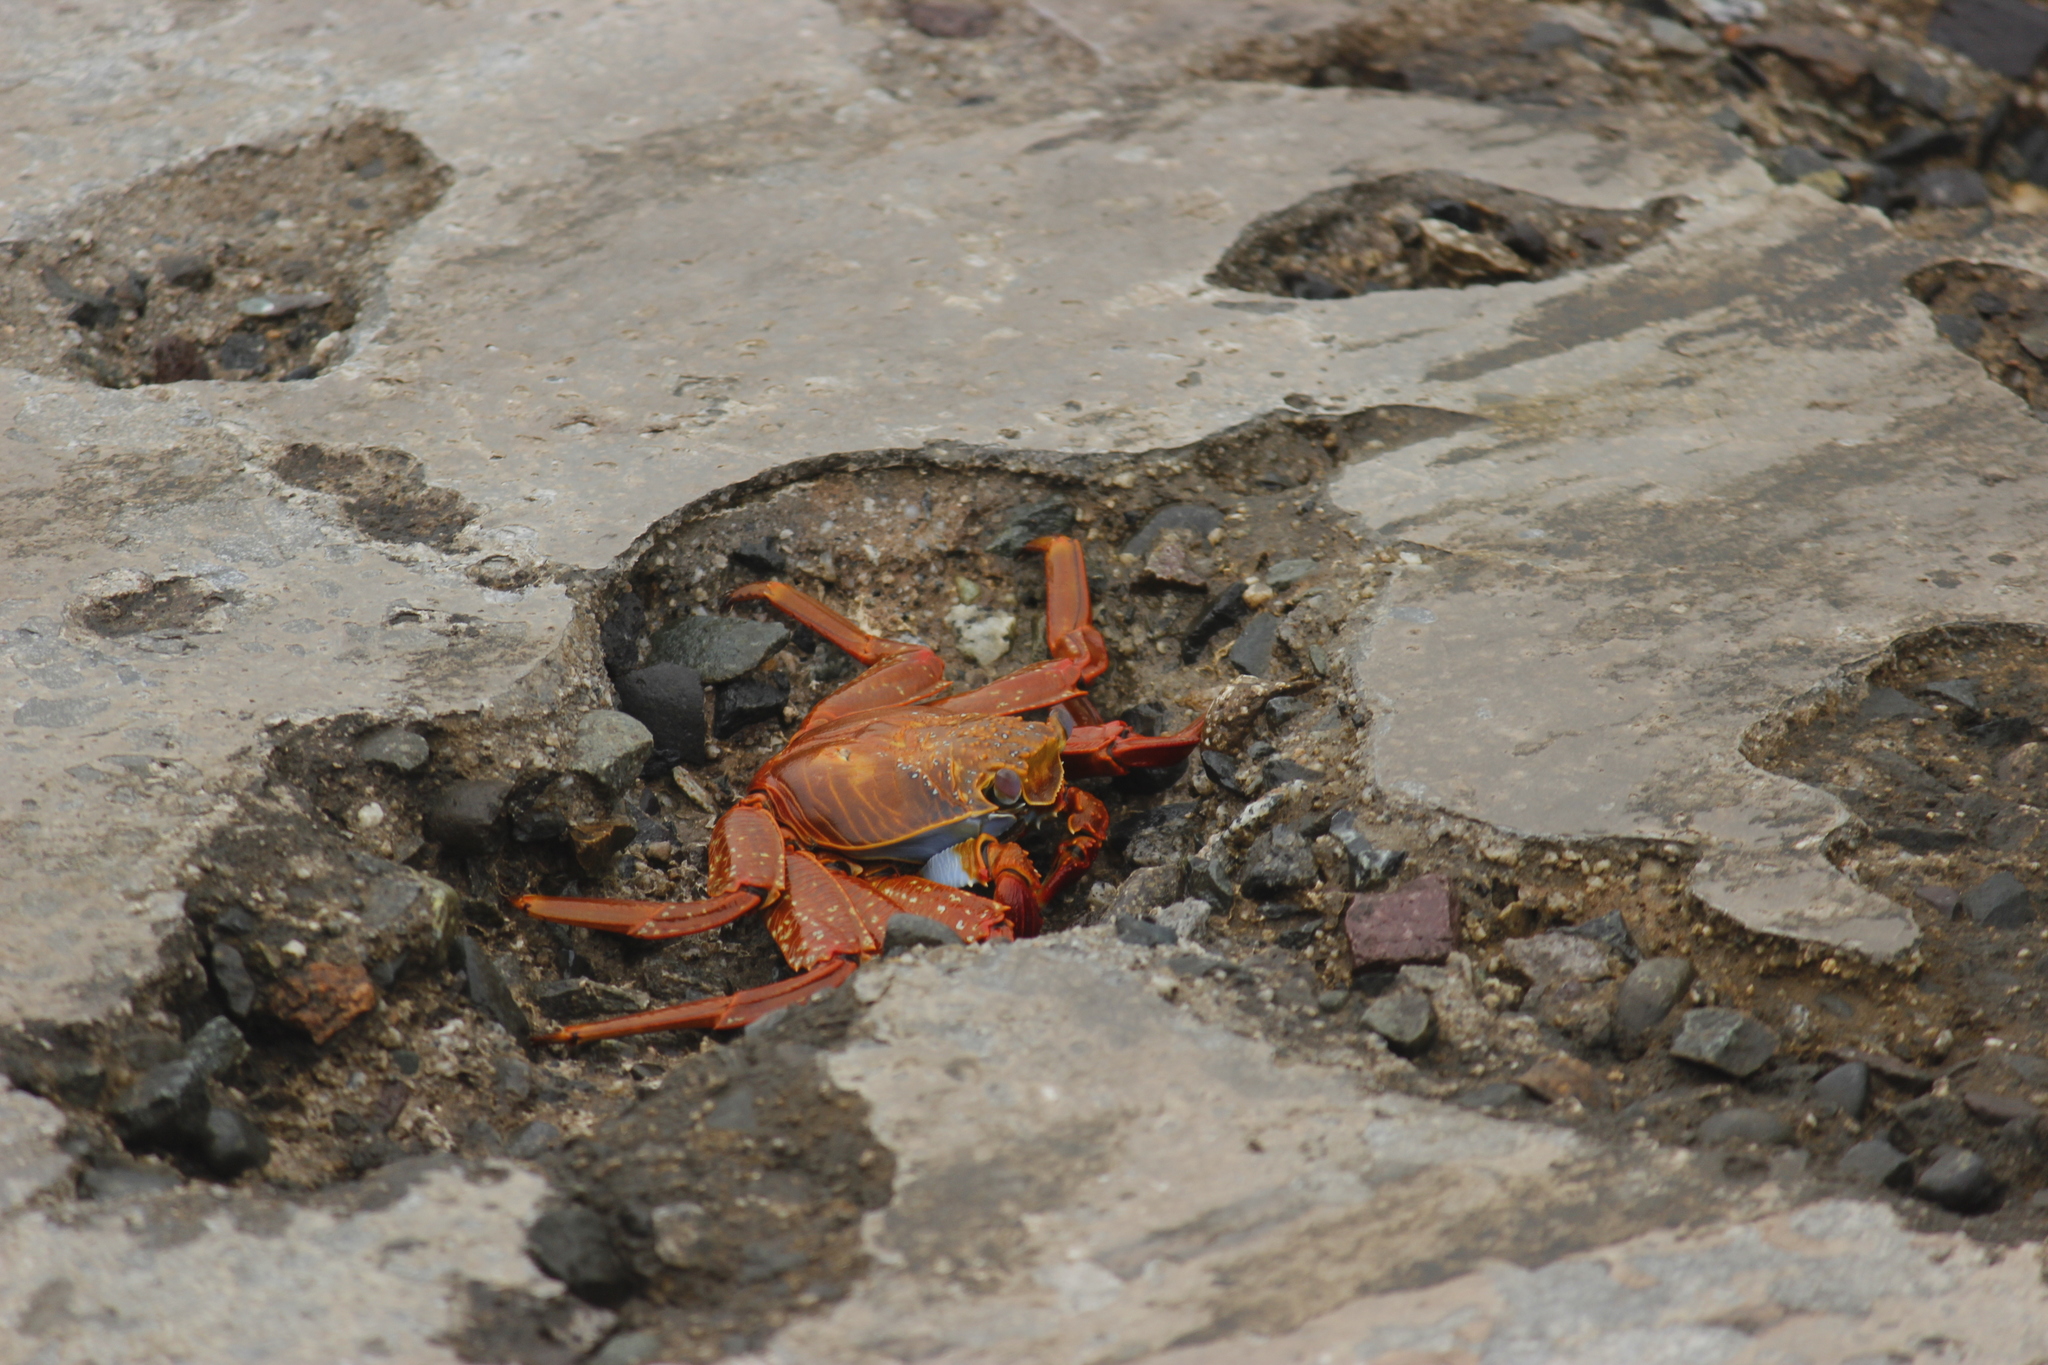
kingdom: Animalia
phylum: Arthropoda
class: Malacostraca
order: Decapoda
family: Grapsidae
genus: Grapsus
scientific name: Grapsus grapsus
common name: Sally lightfoot
